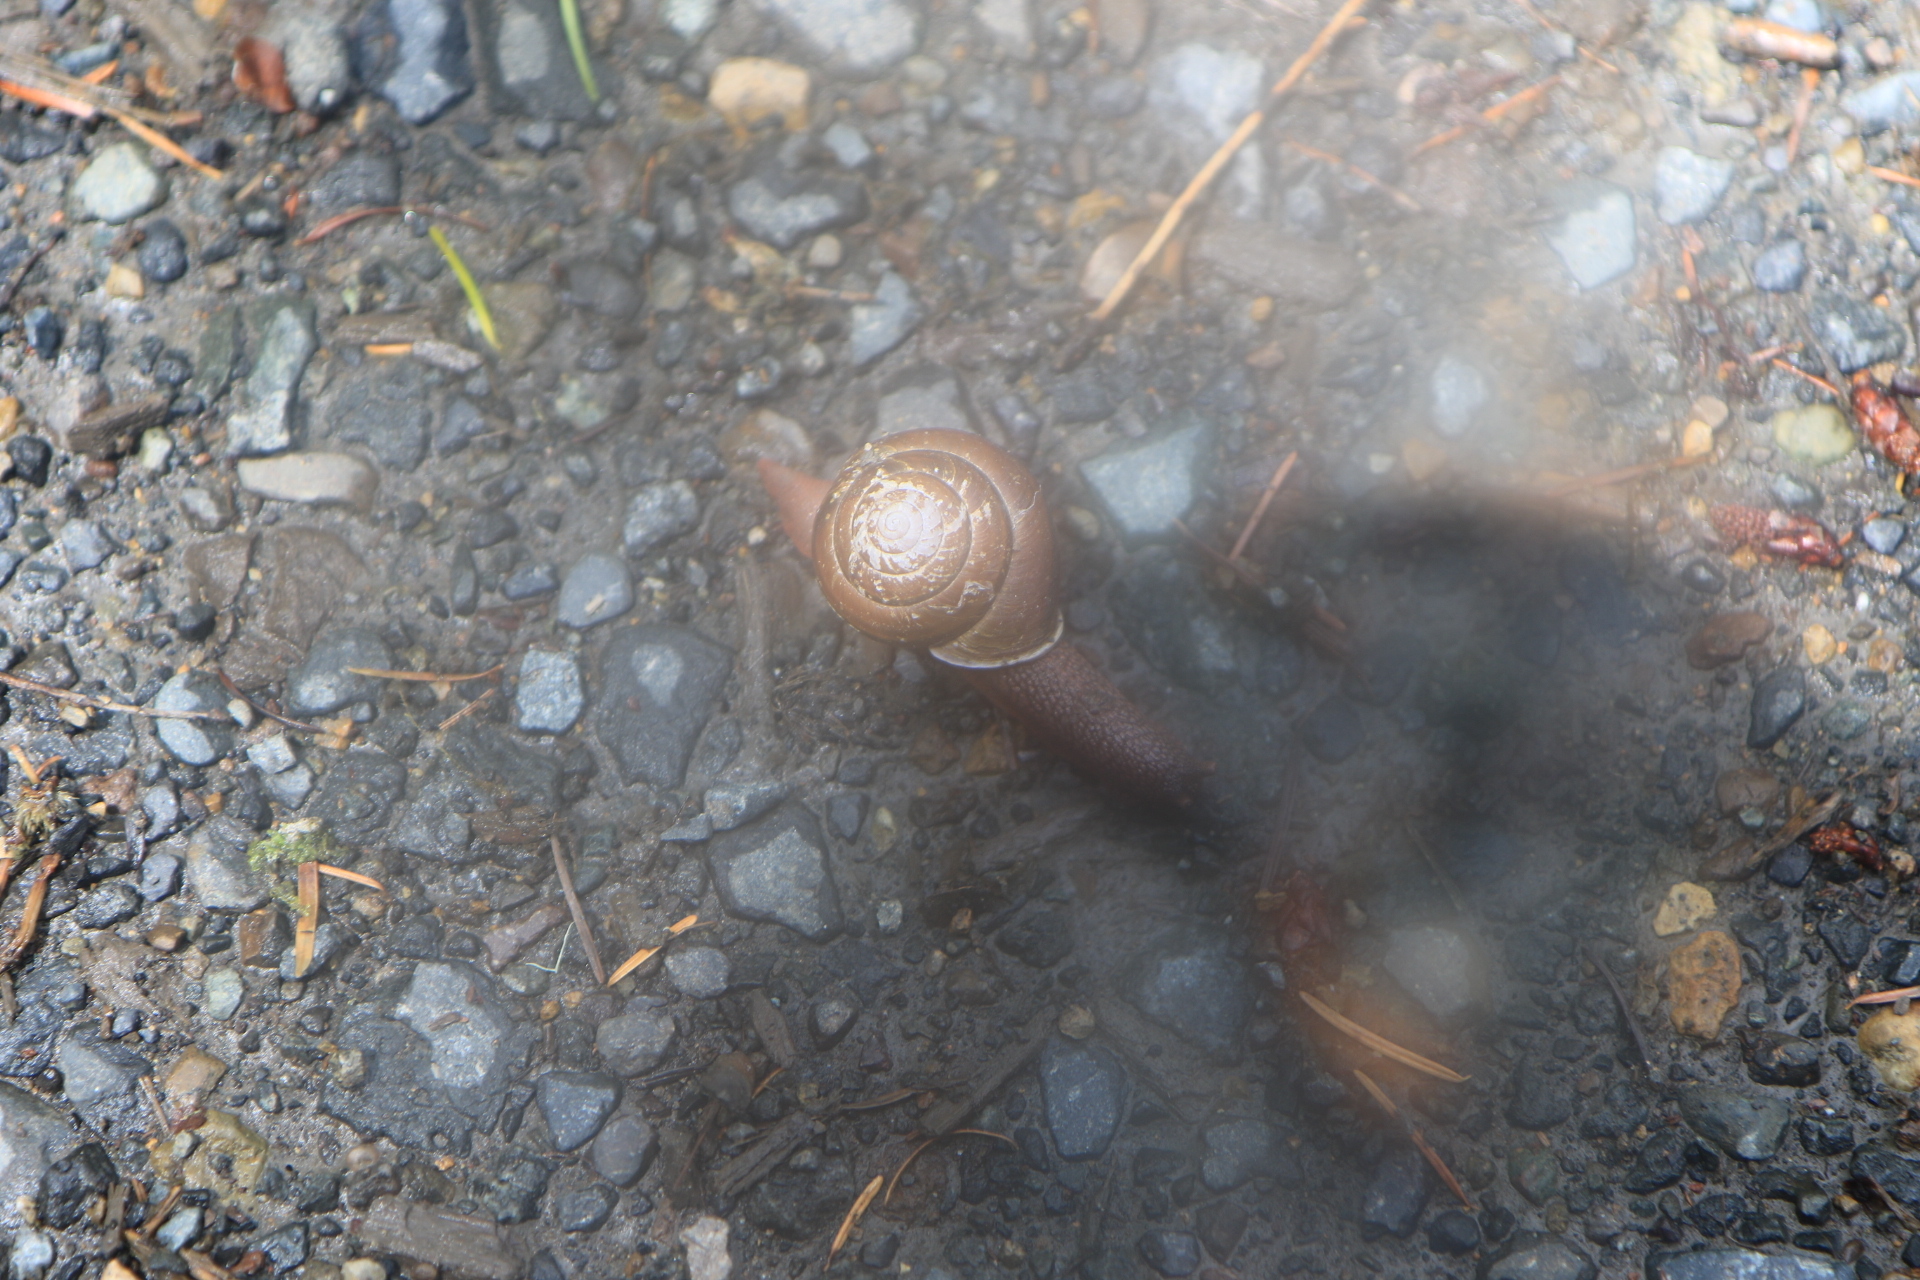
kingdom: Animalia
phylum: Mollusca
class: Gastropoda
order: Stylommatophora
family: Xanthonychidae
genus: Monadenia
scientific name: Monadenia fidelis
